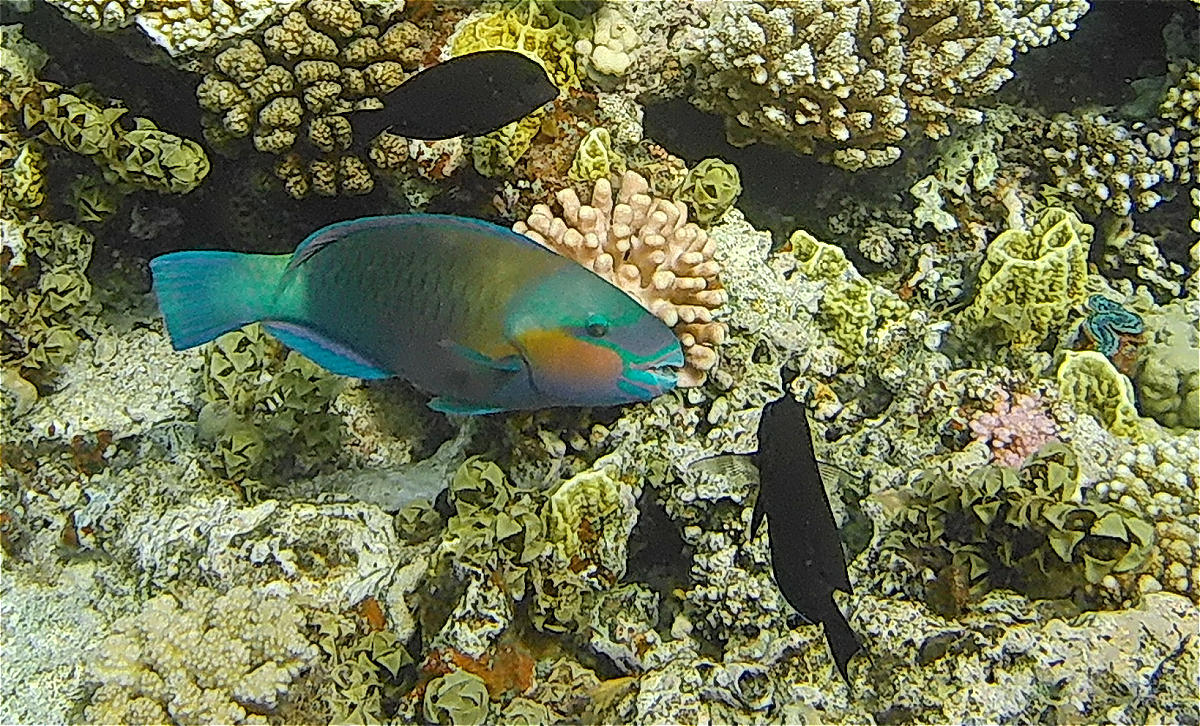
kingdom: Animalia
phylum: Chordata
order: Perciformes
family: Scaridae
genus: Chlorurus
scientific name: Chlorurus sordidus
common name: Bullethead parrotfish
